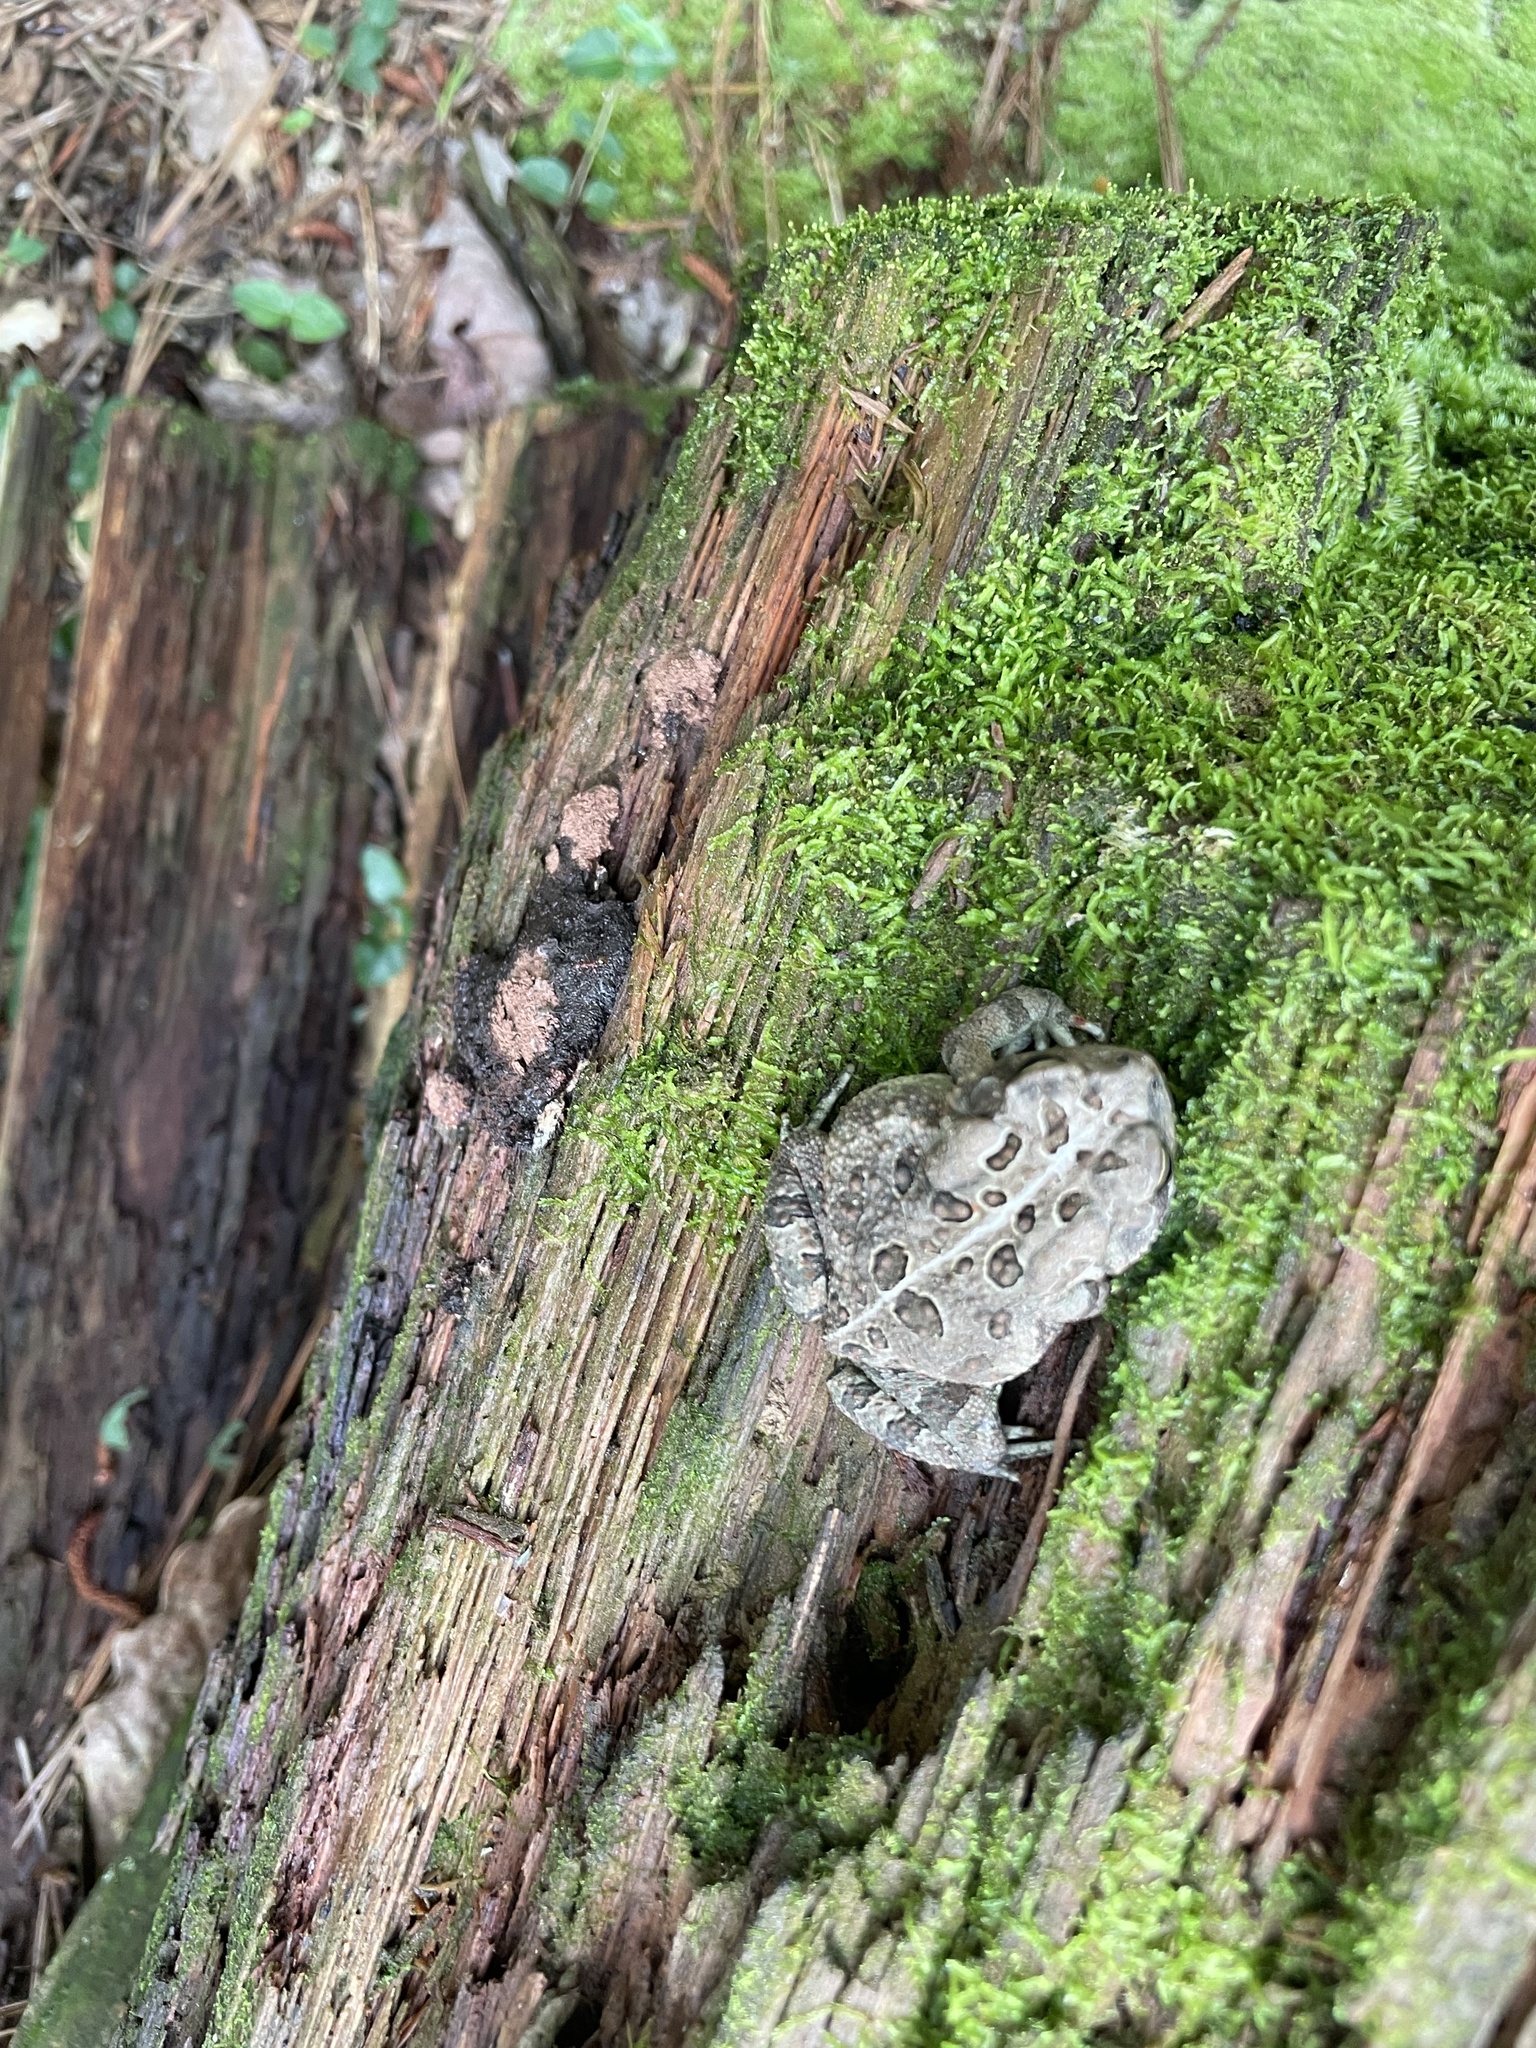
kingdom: Animalia
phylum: Chordata
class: Amphibia
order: Anura
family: Bufonidae
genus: Anaxyrus
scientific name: Anaxyrus fowleri
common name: Fowler's toad
